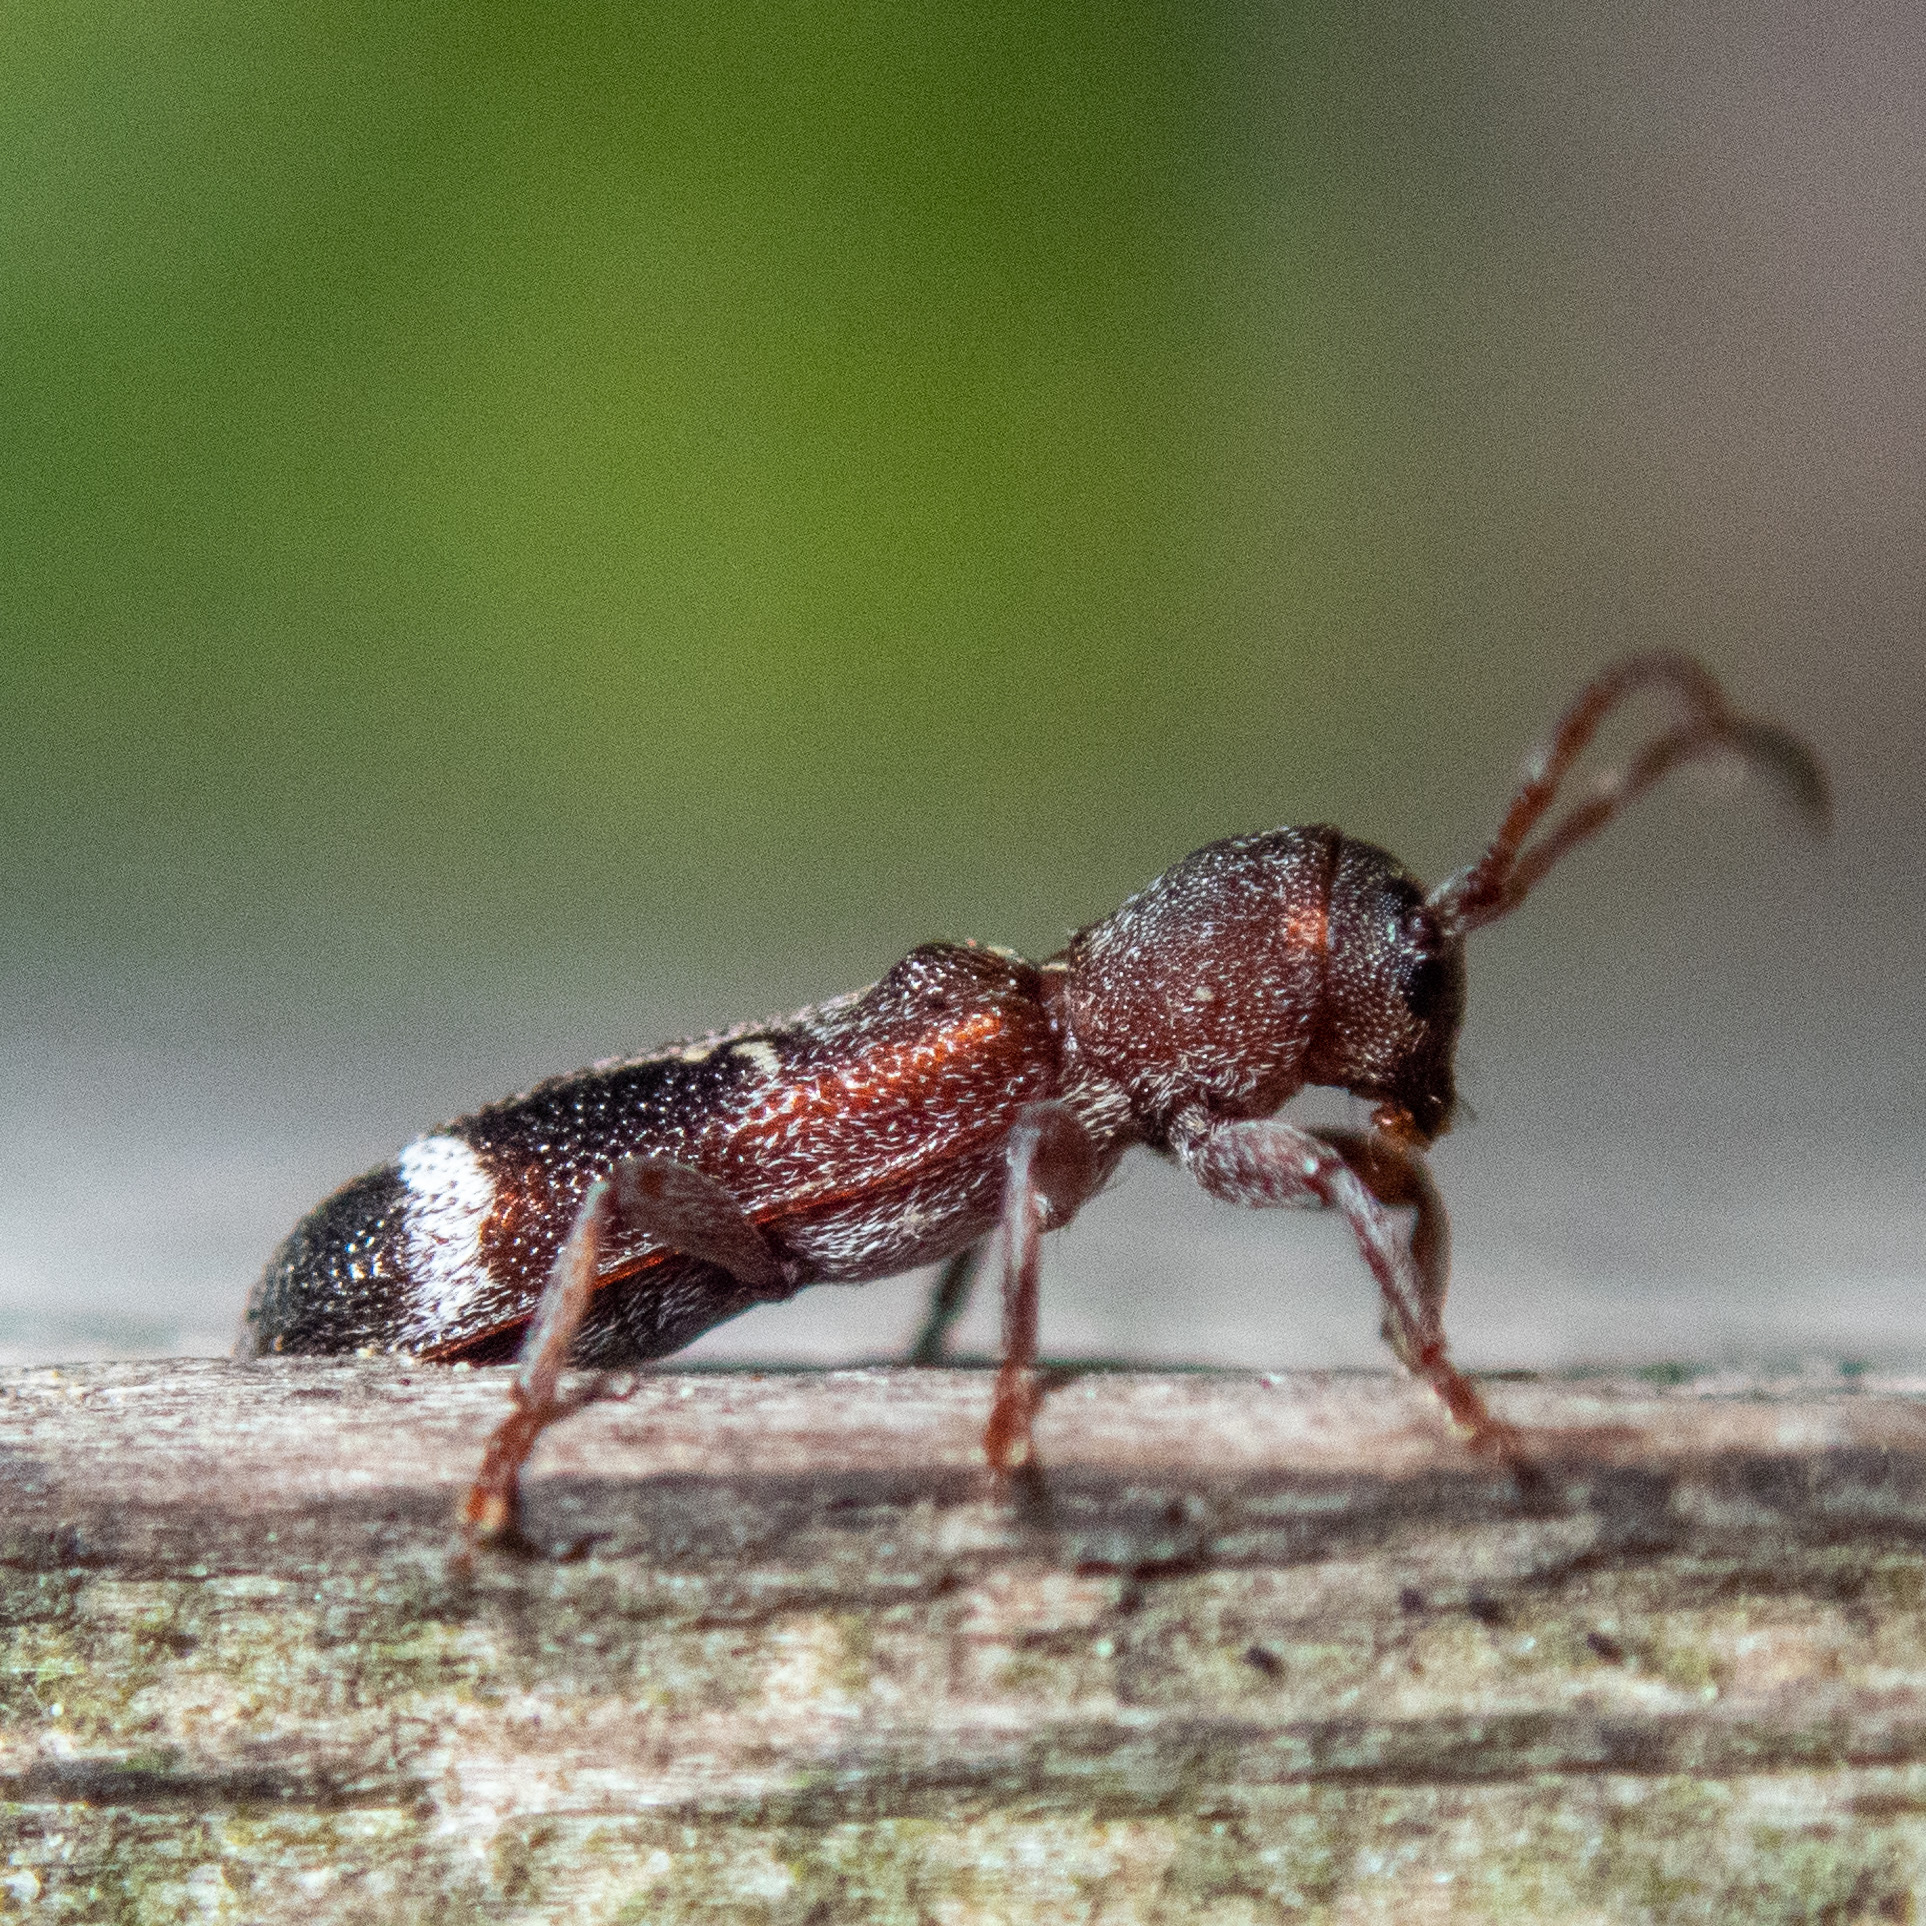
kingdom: Animalia
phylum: Arthropoda
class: Insecta
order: Coleoptera
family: Cerambycidae
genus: Psenocerus
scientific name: Psenocerus supernotatus
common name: Currant-tip borer
